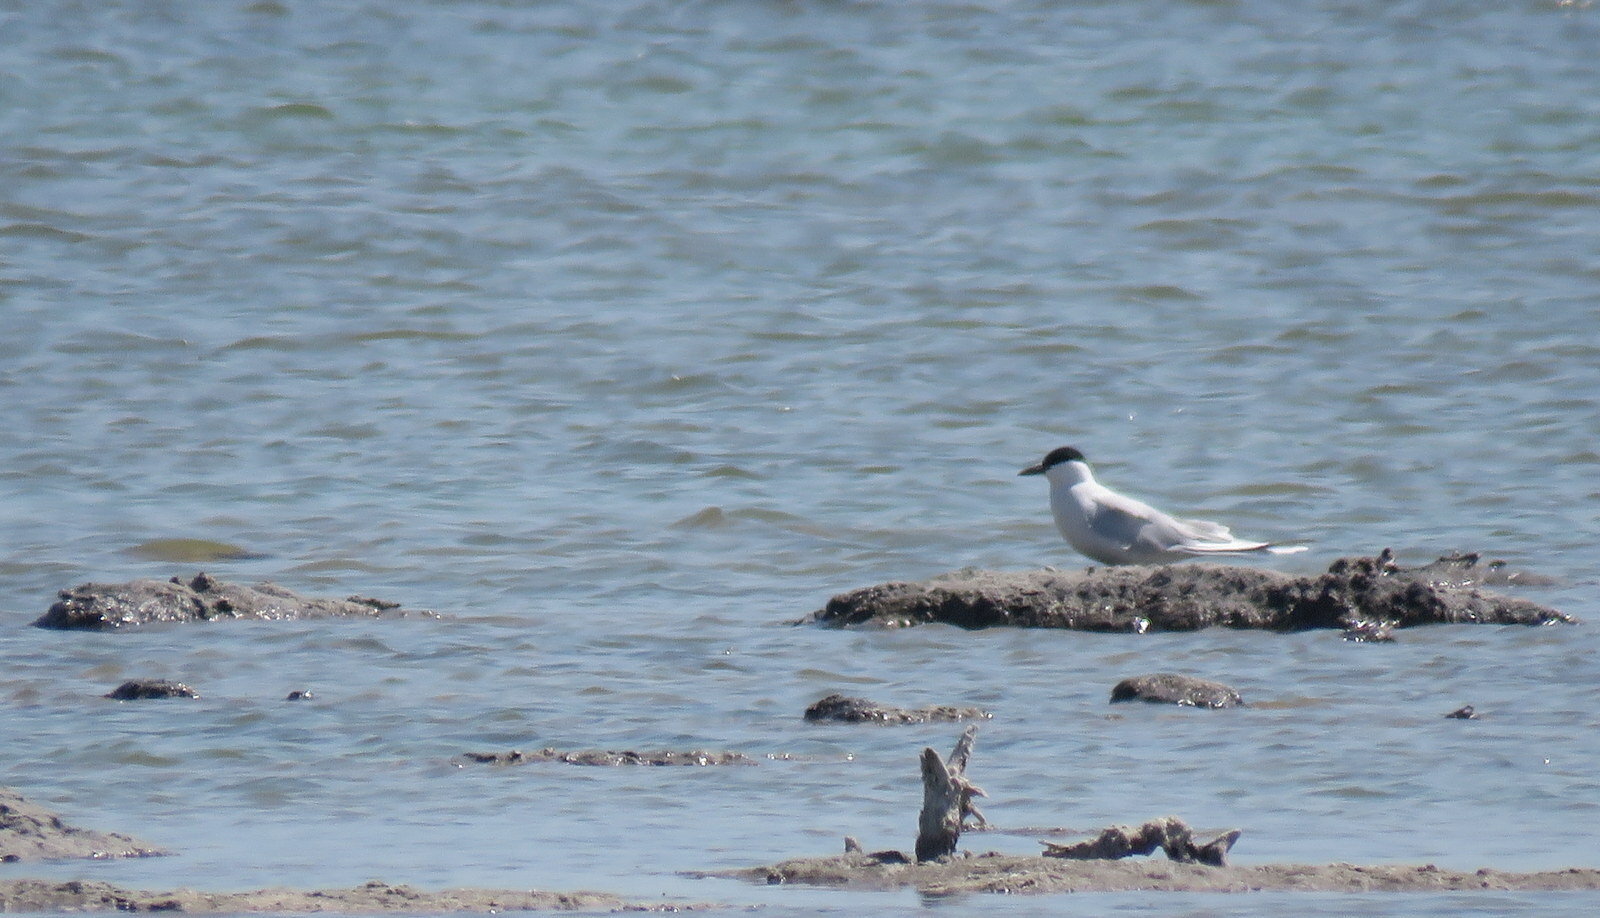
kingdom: Animalia
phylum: Chordata
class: Aves
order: Charadriiformes
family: Laridae
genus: Gelochelidon
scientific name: Gelochelidon nilotica
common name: Gull-billed tern
